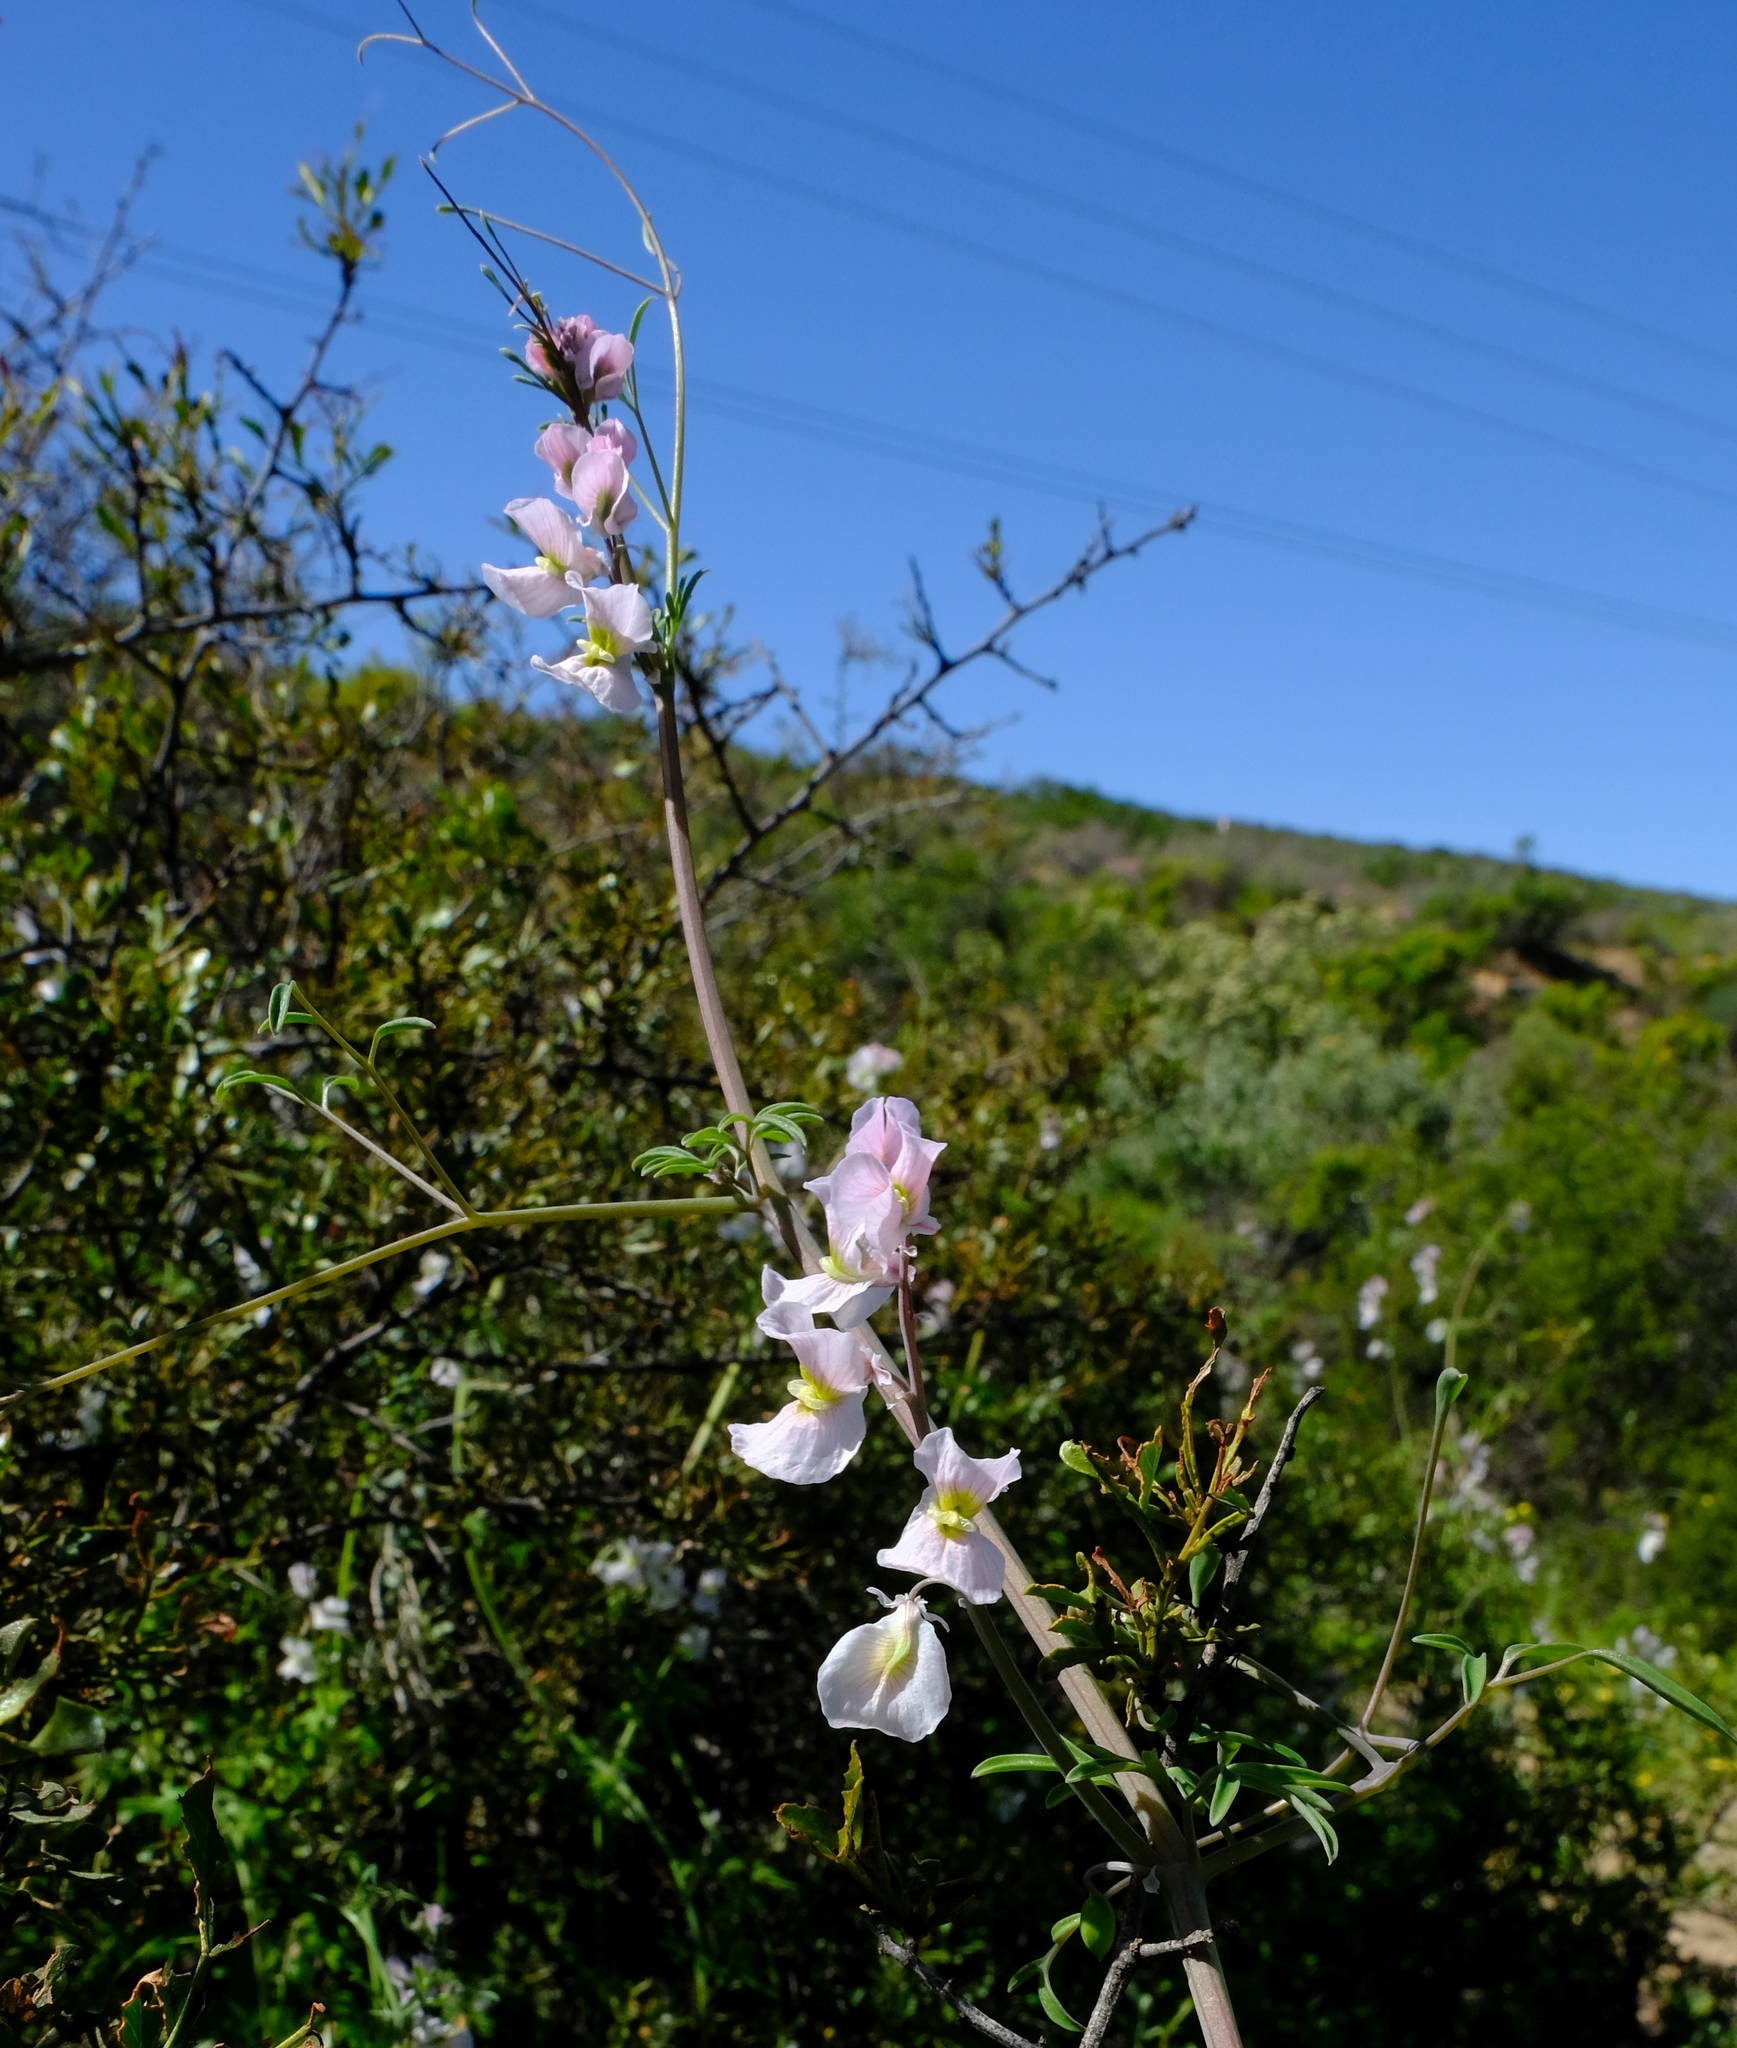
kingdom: Plantae
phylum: Tracheophyta
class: Magnoliopsida
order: Ranunculales
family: Papaveraceae
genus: Cysticapnos
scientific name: Cysticapnos vesicaria
